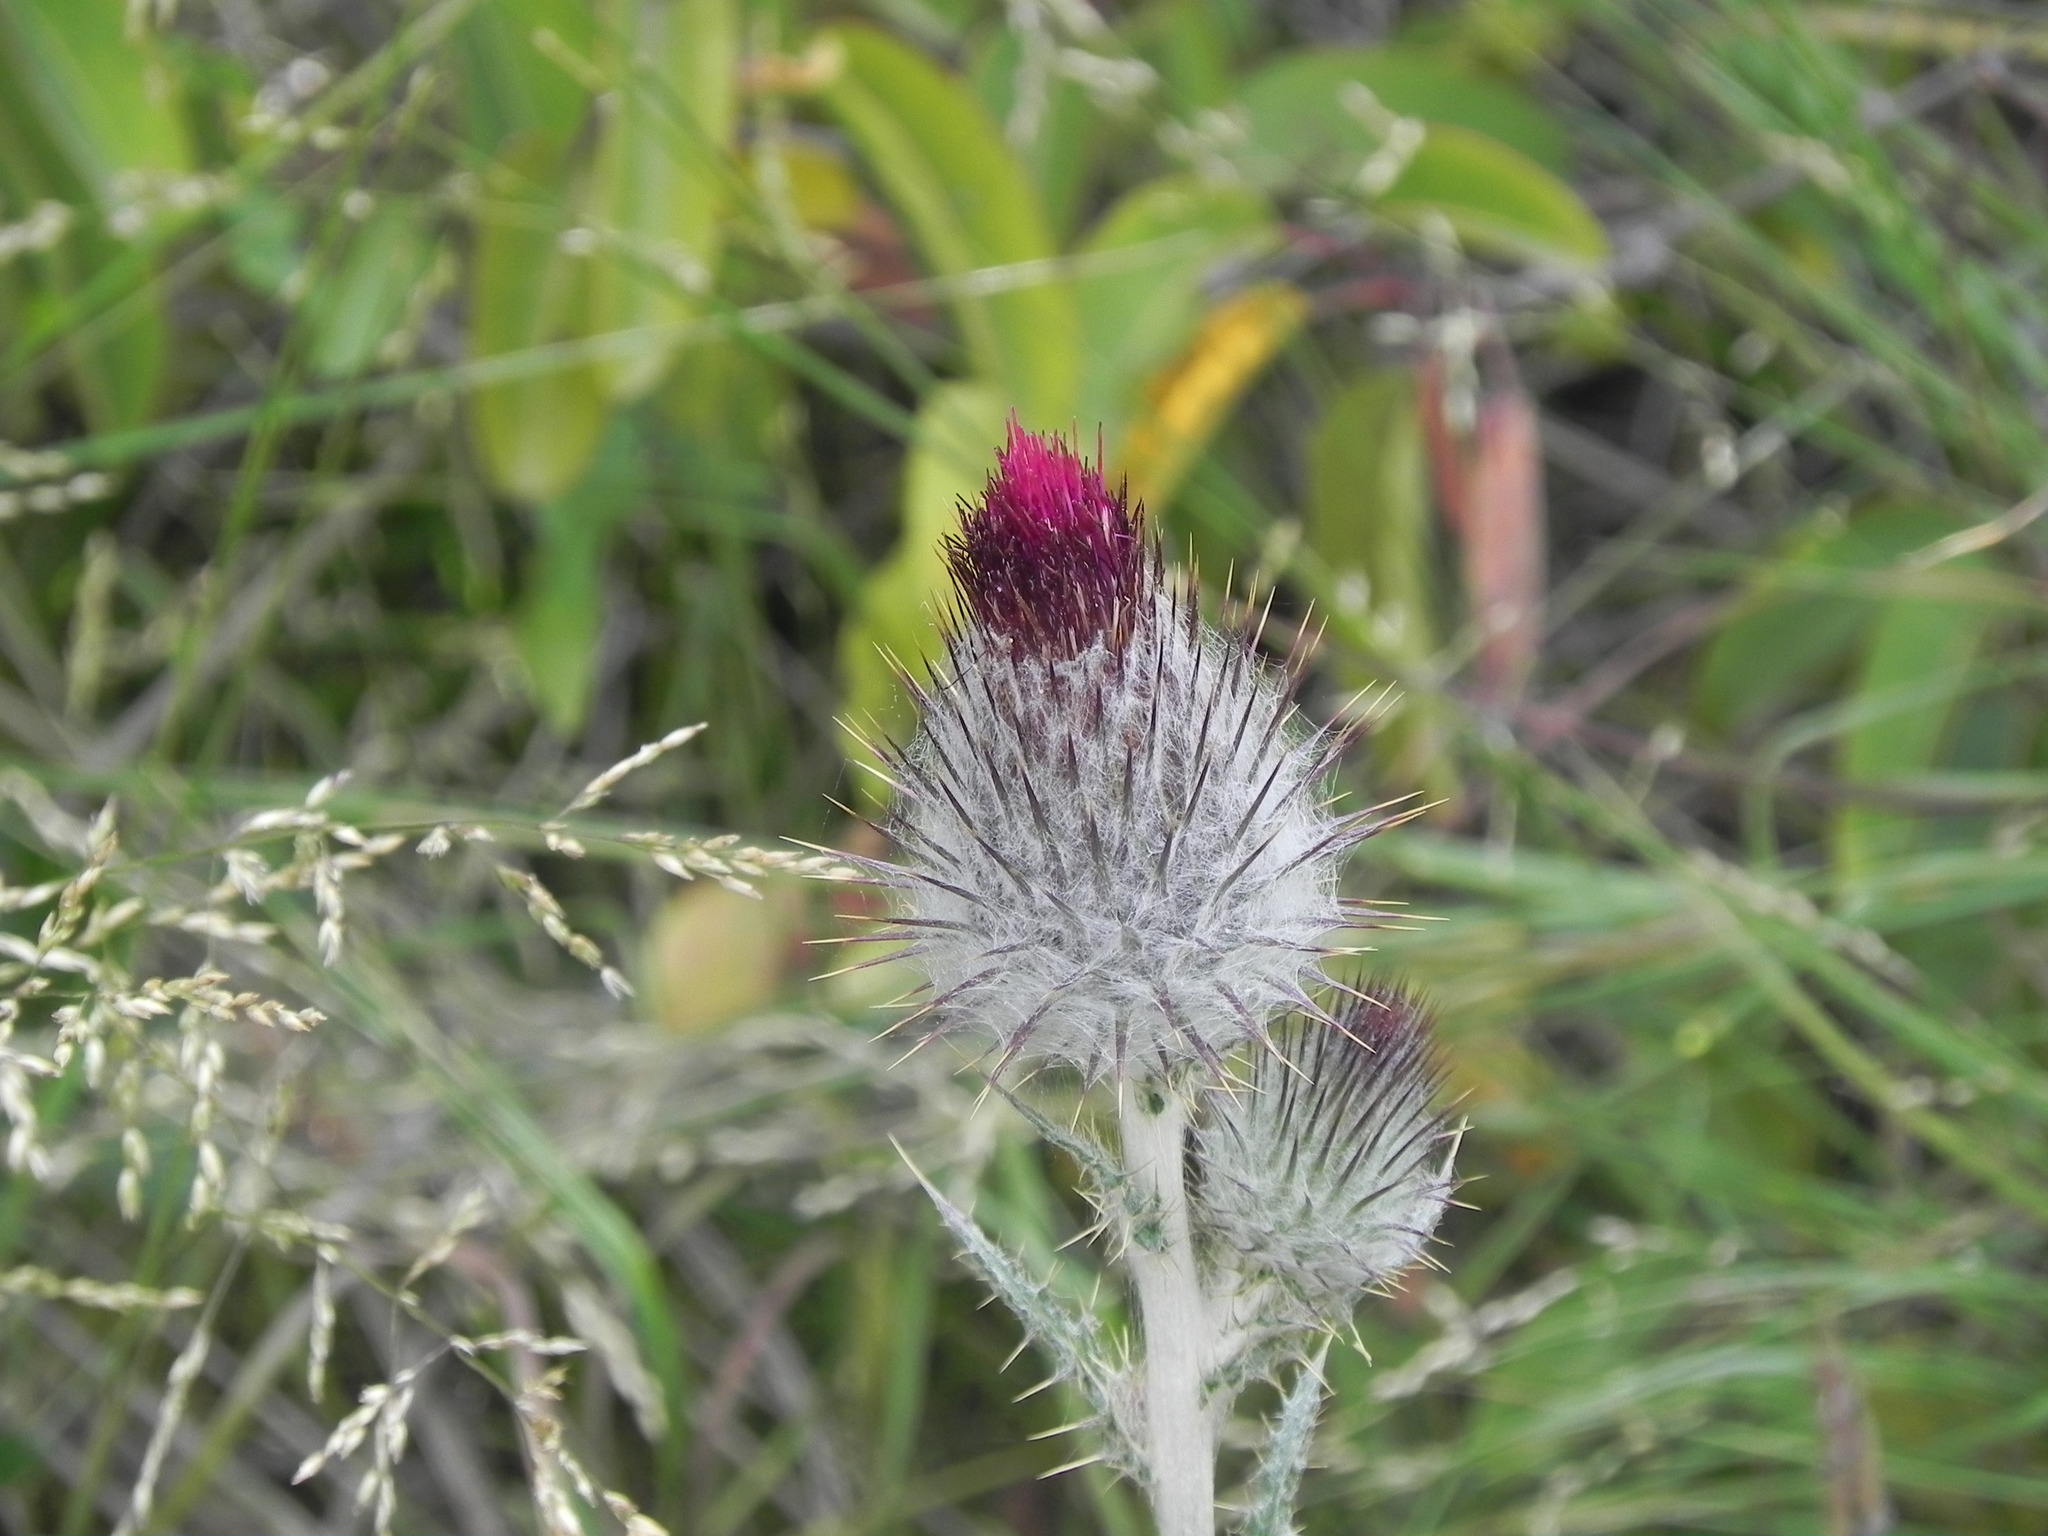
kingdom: Plantae
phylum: Tracheophyta
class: Magnoliopsida
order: Asterales
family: Asteraceae
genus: Cirsium
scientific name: Cirsium occidentale
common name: Western thistle
